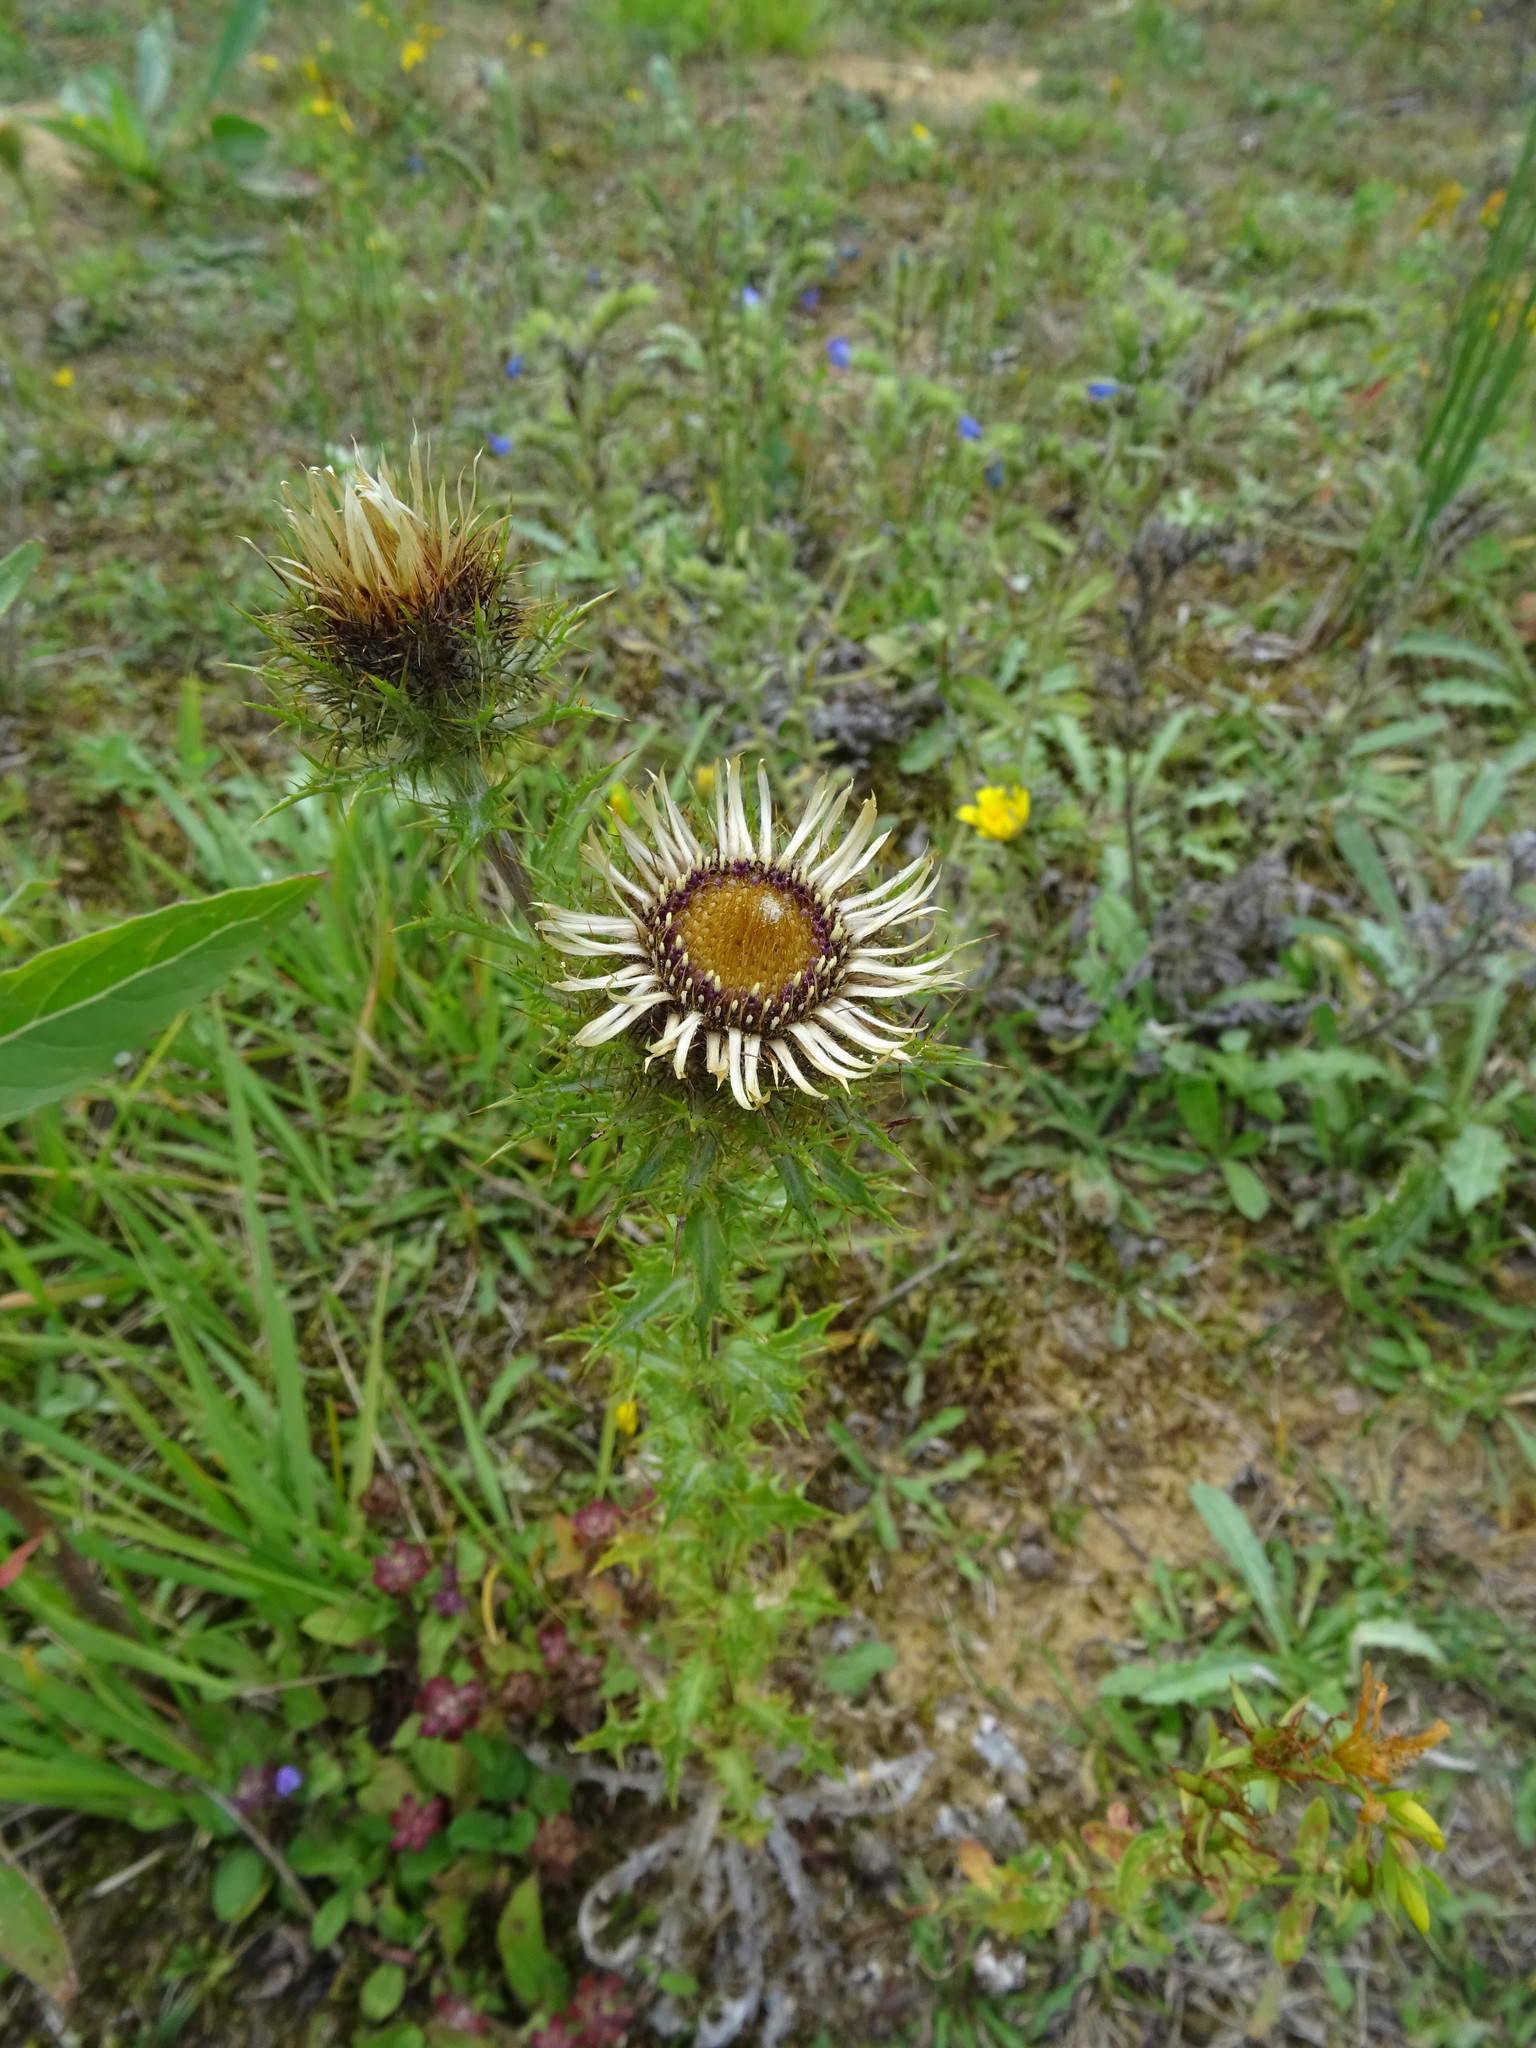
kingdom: Plantae
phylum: Tracheophyta
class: Magnoliopsida
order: Asterales
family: Asteraceae
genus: Carlina
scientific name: Carlina vulgaris
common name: Carline thistle
